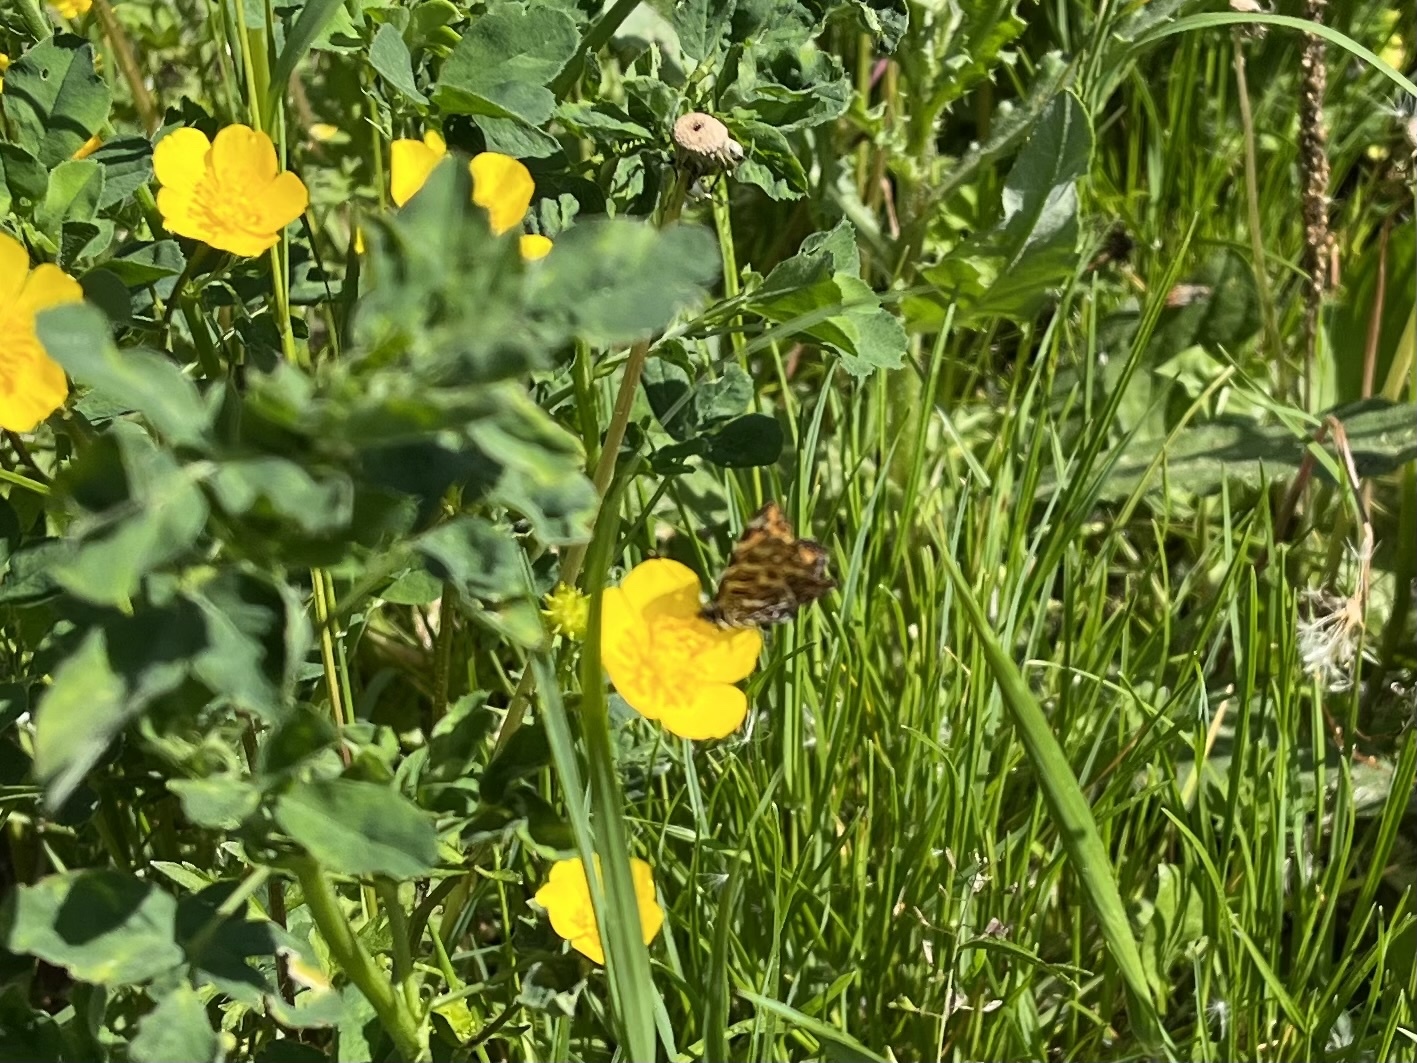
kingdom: Animalia
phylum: Arthropoda
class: Insecta
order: Lepidoptera
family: Nymphalidae
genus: Araschnia
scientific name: Araschnia levana
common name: Map butterfly
